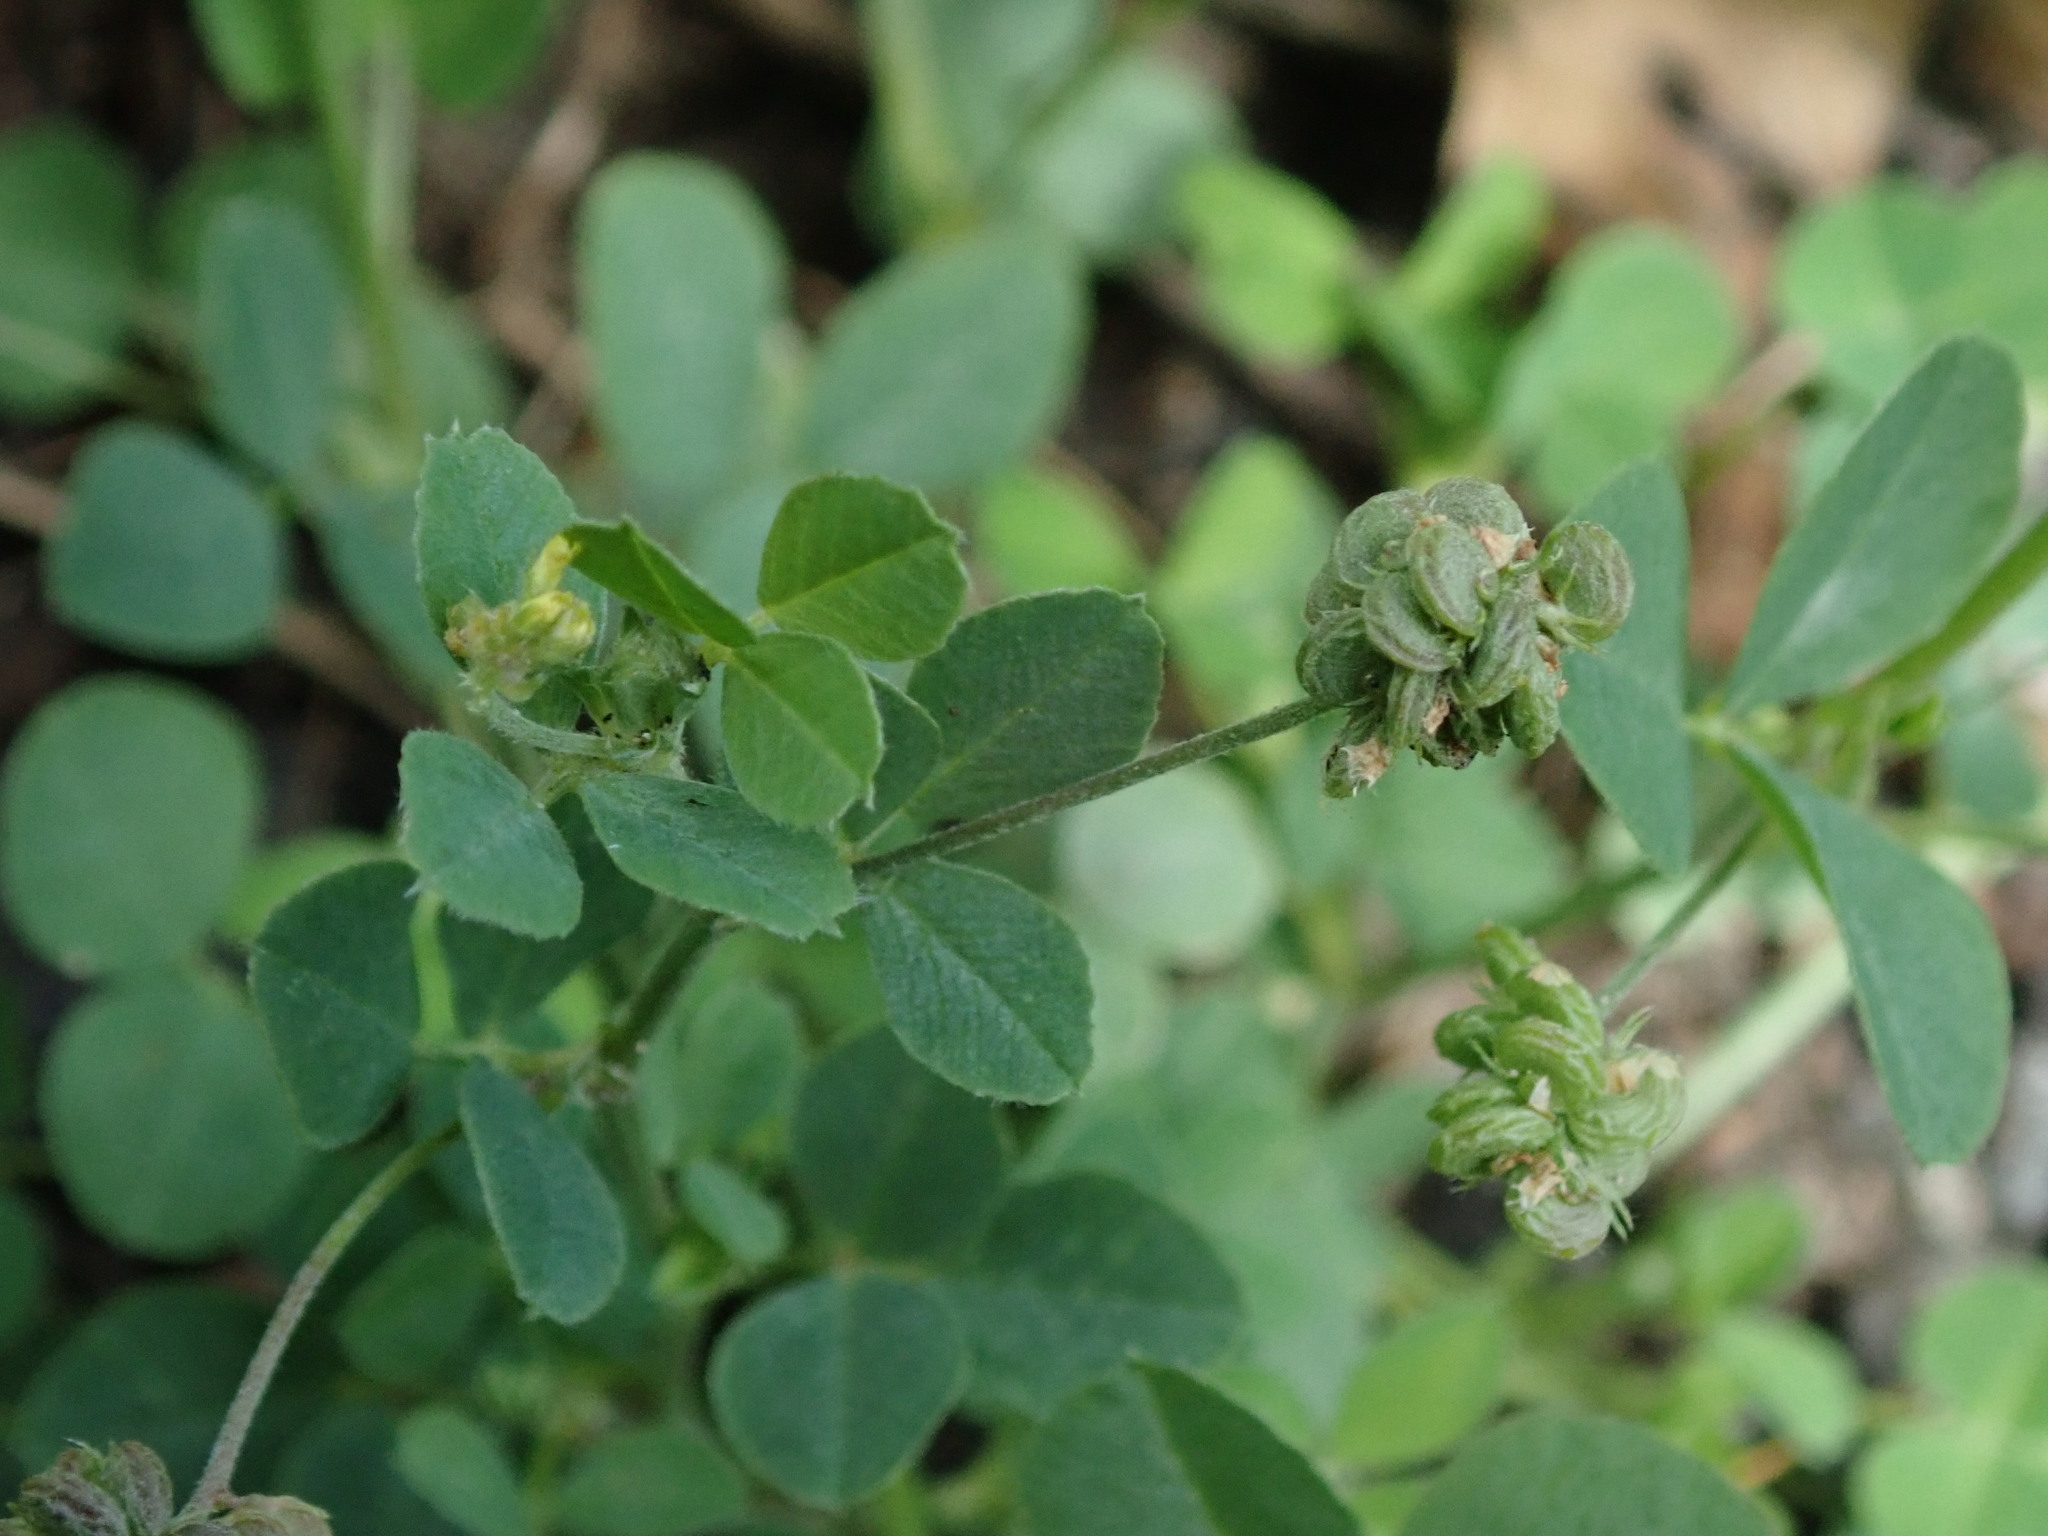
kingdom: Plantae
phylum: Tracheophyta
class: Magnoliopsida
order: Fabales
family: Fabaceae
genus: Medicago
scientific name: Medicago lupulina
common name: Black medick
